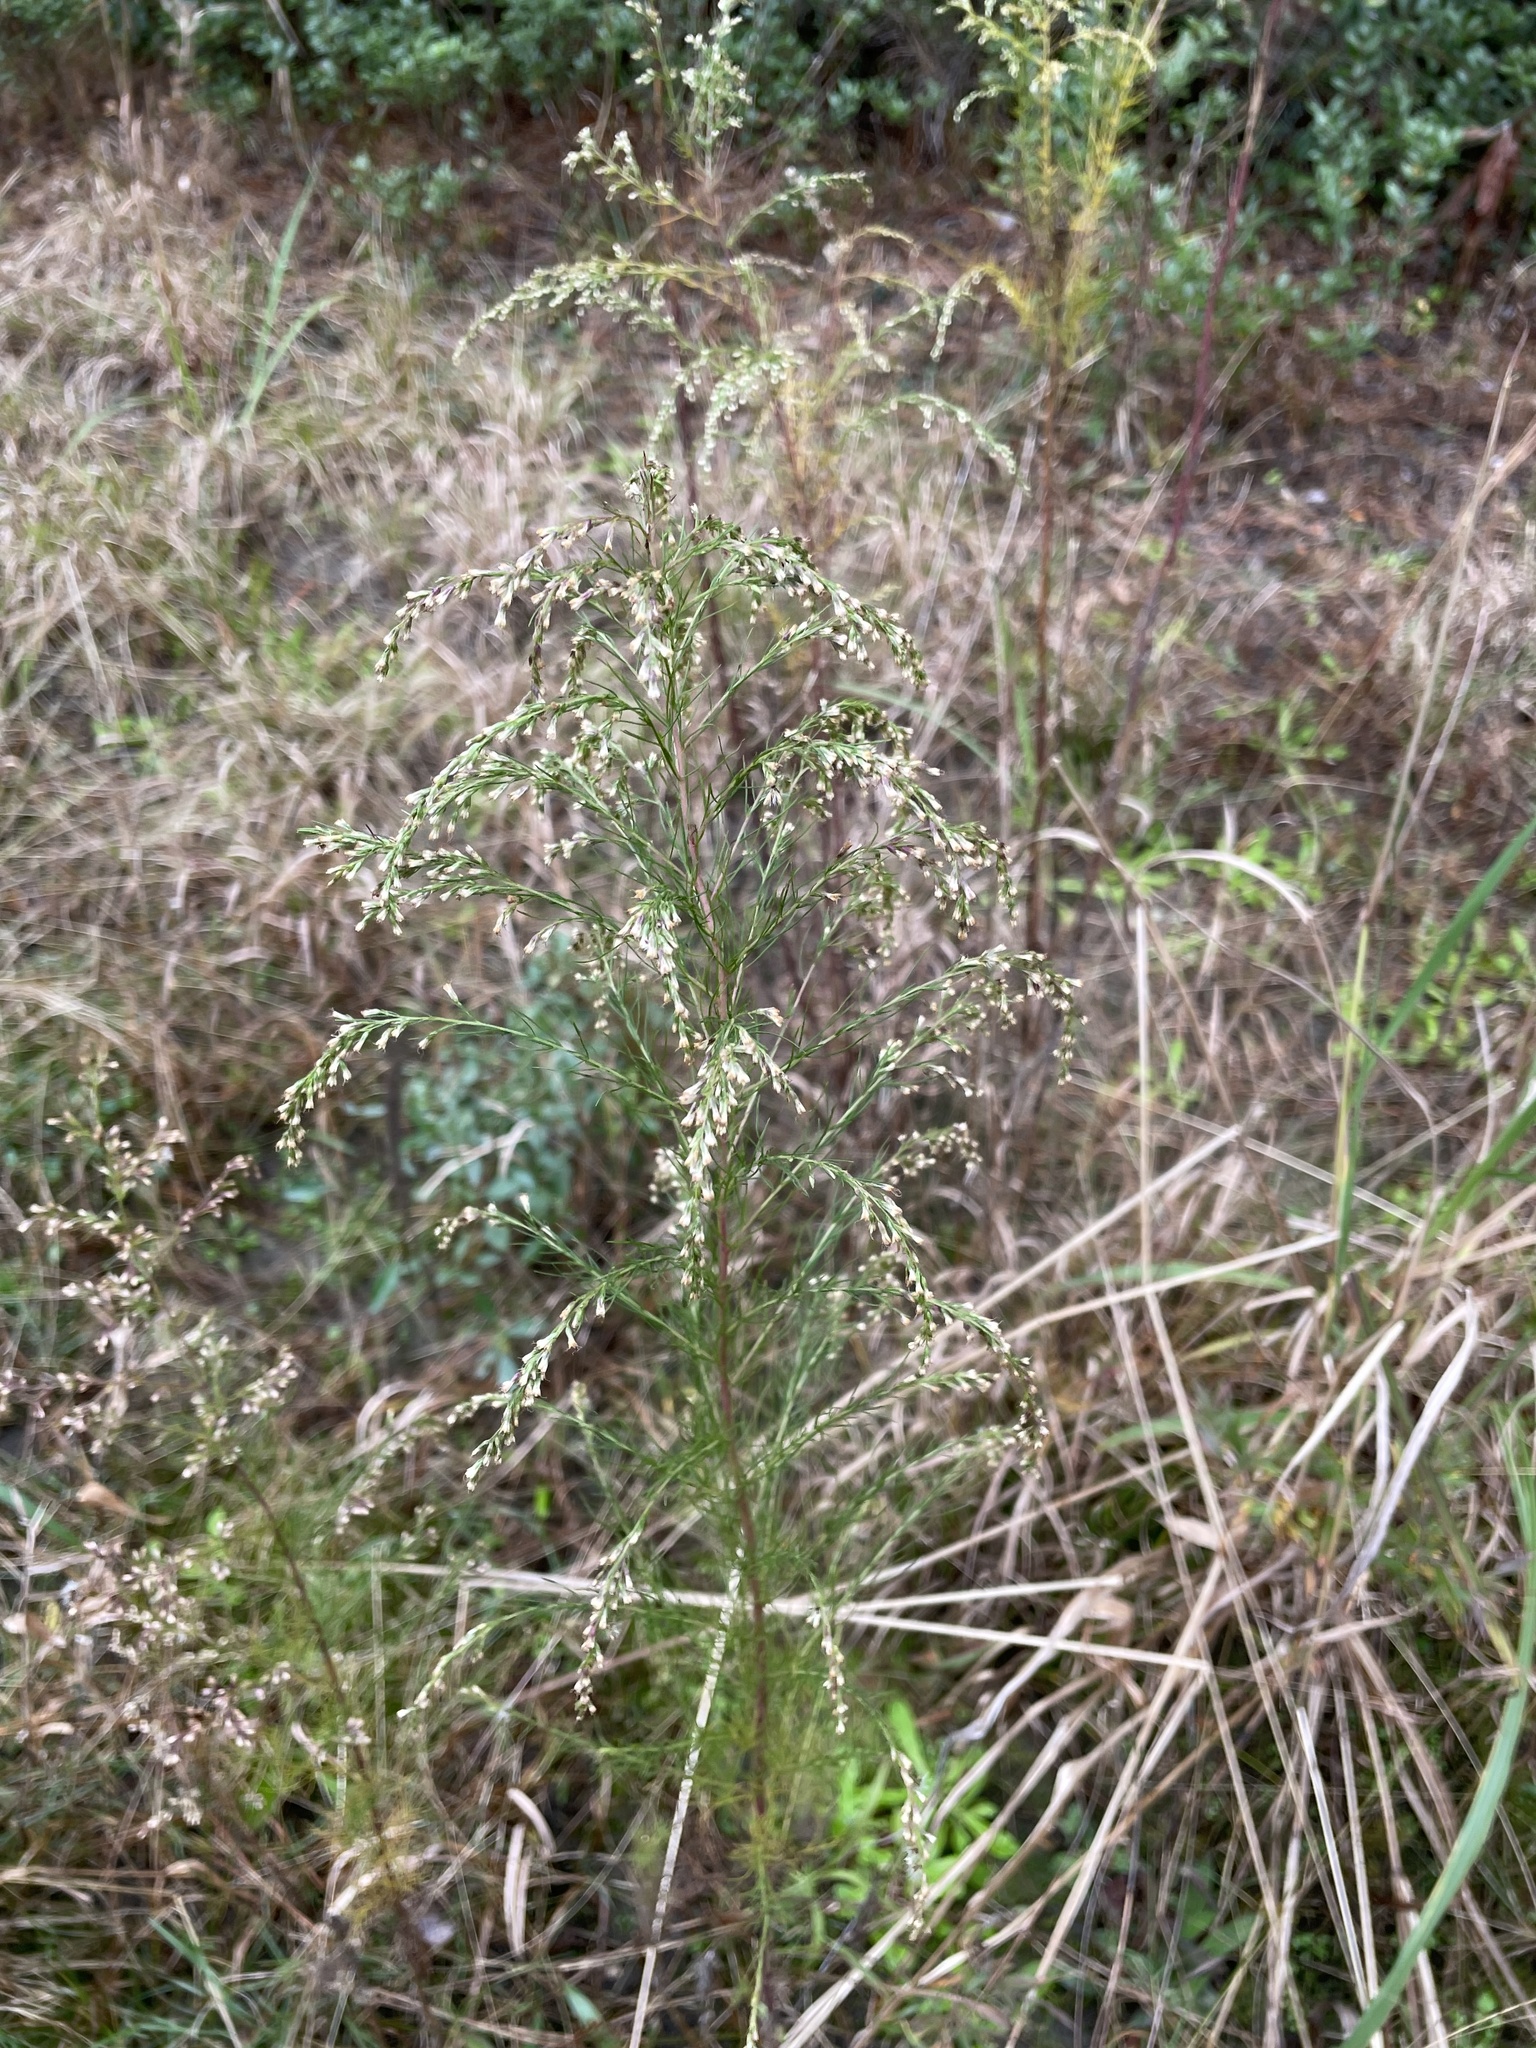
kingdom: Plantae
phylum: Tracheophyta
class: Magnoliopsida
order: Asterales
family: Asteraceae
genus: Eupatorium
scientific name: Eupatorium capillifolium
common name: Dog-fennel
